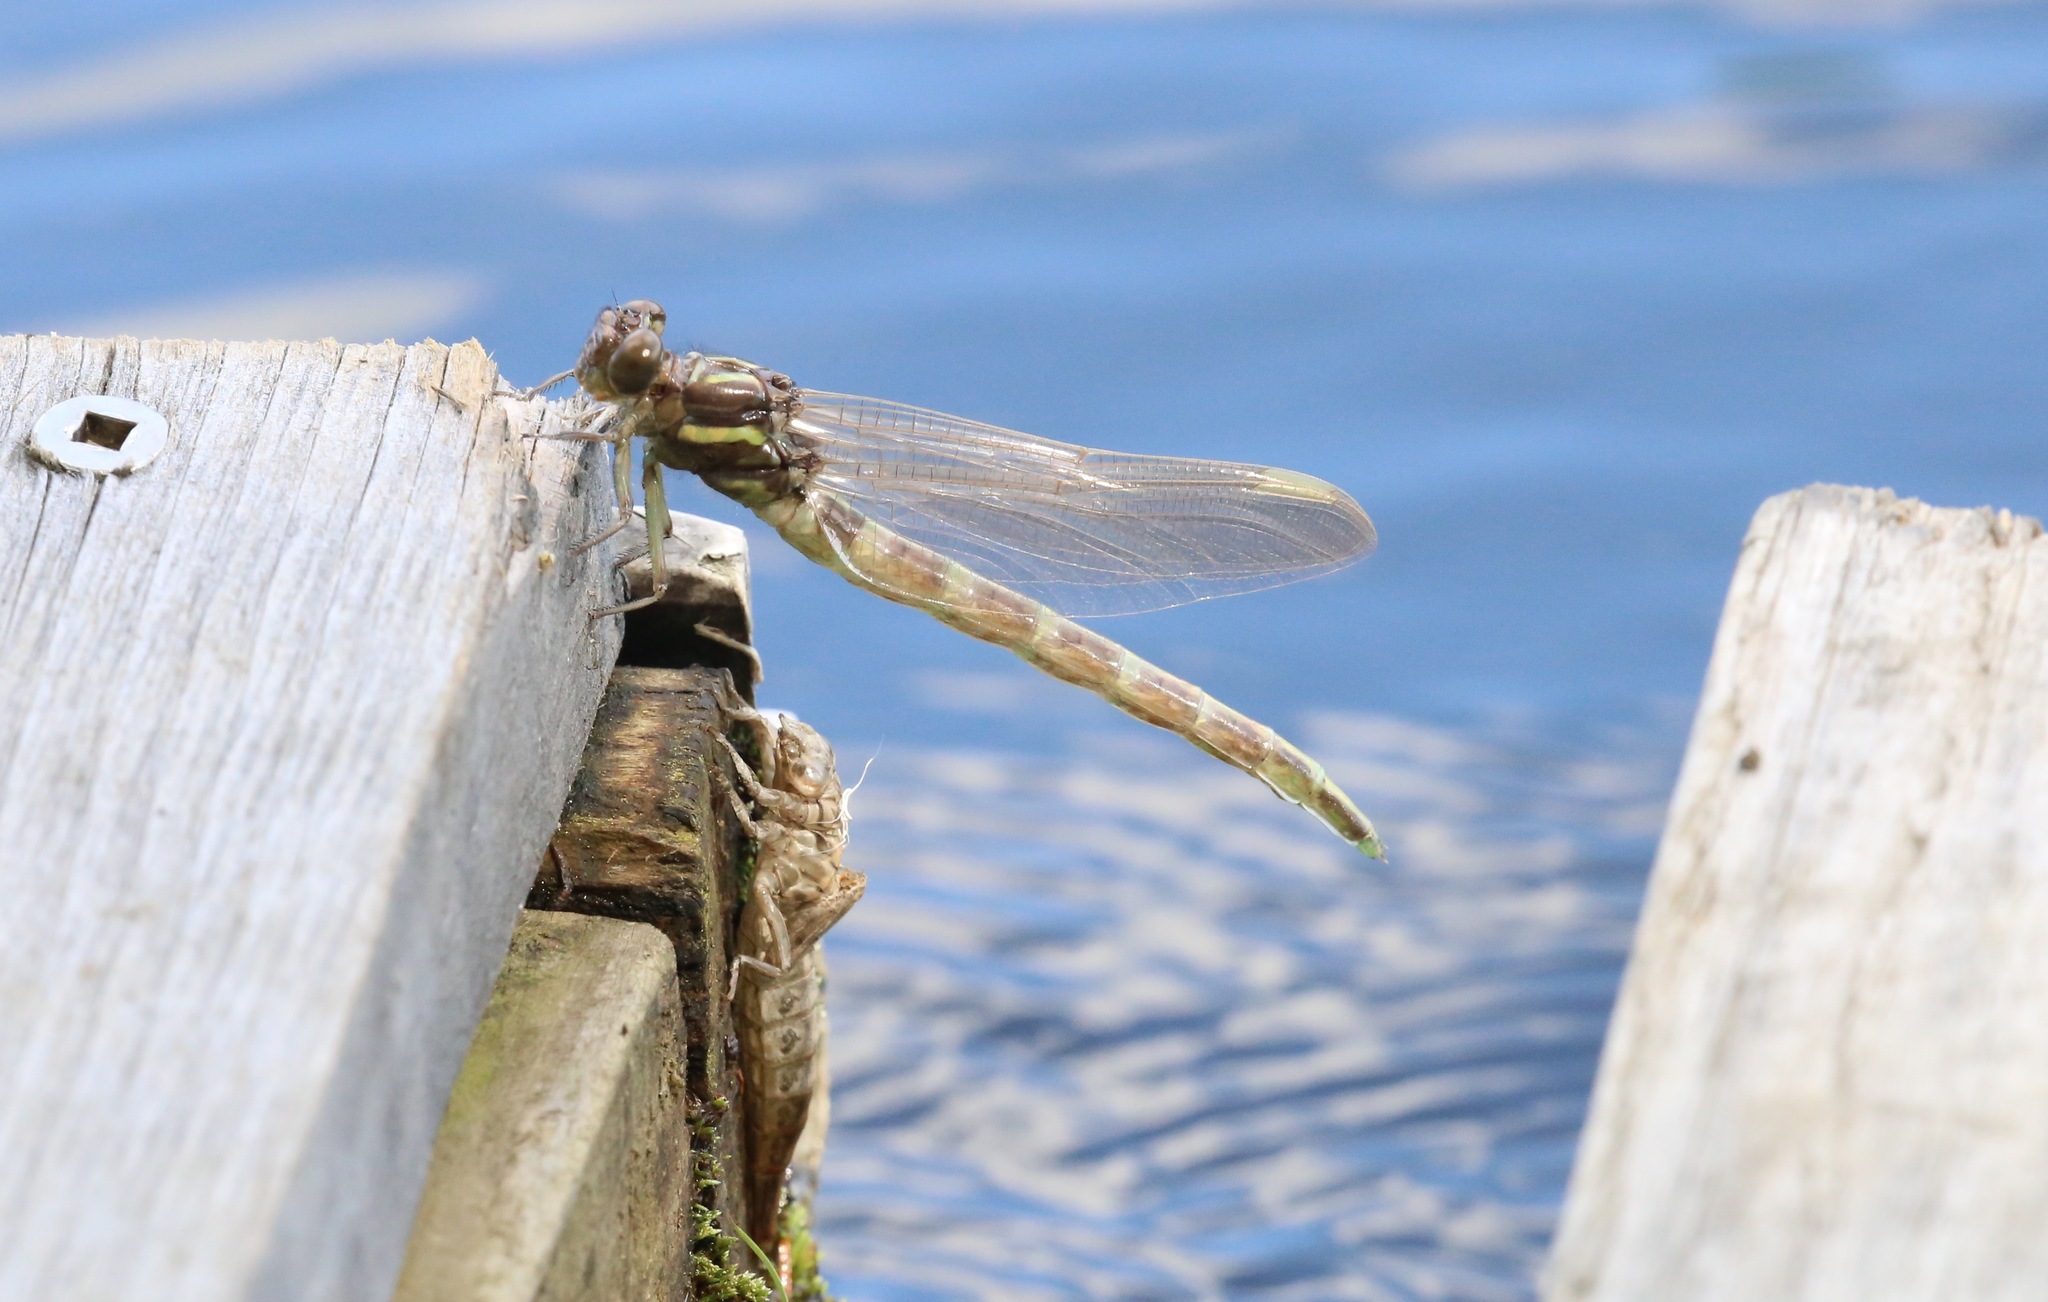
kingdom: Animalia
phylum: Arthropoda
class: Insecta
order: Odonata
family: Gomphidae
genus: Stylurus
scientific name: Stylurus spiniceps
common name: Arrow clubtail
